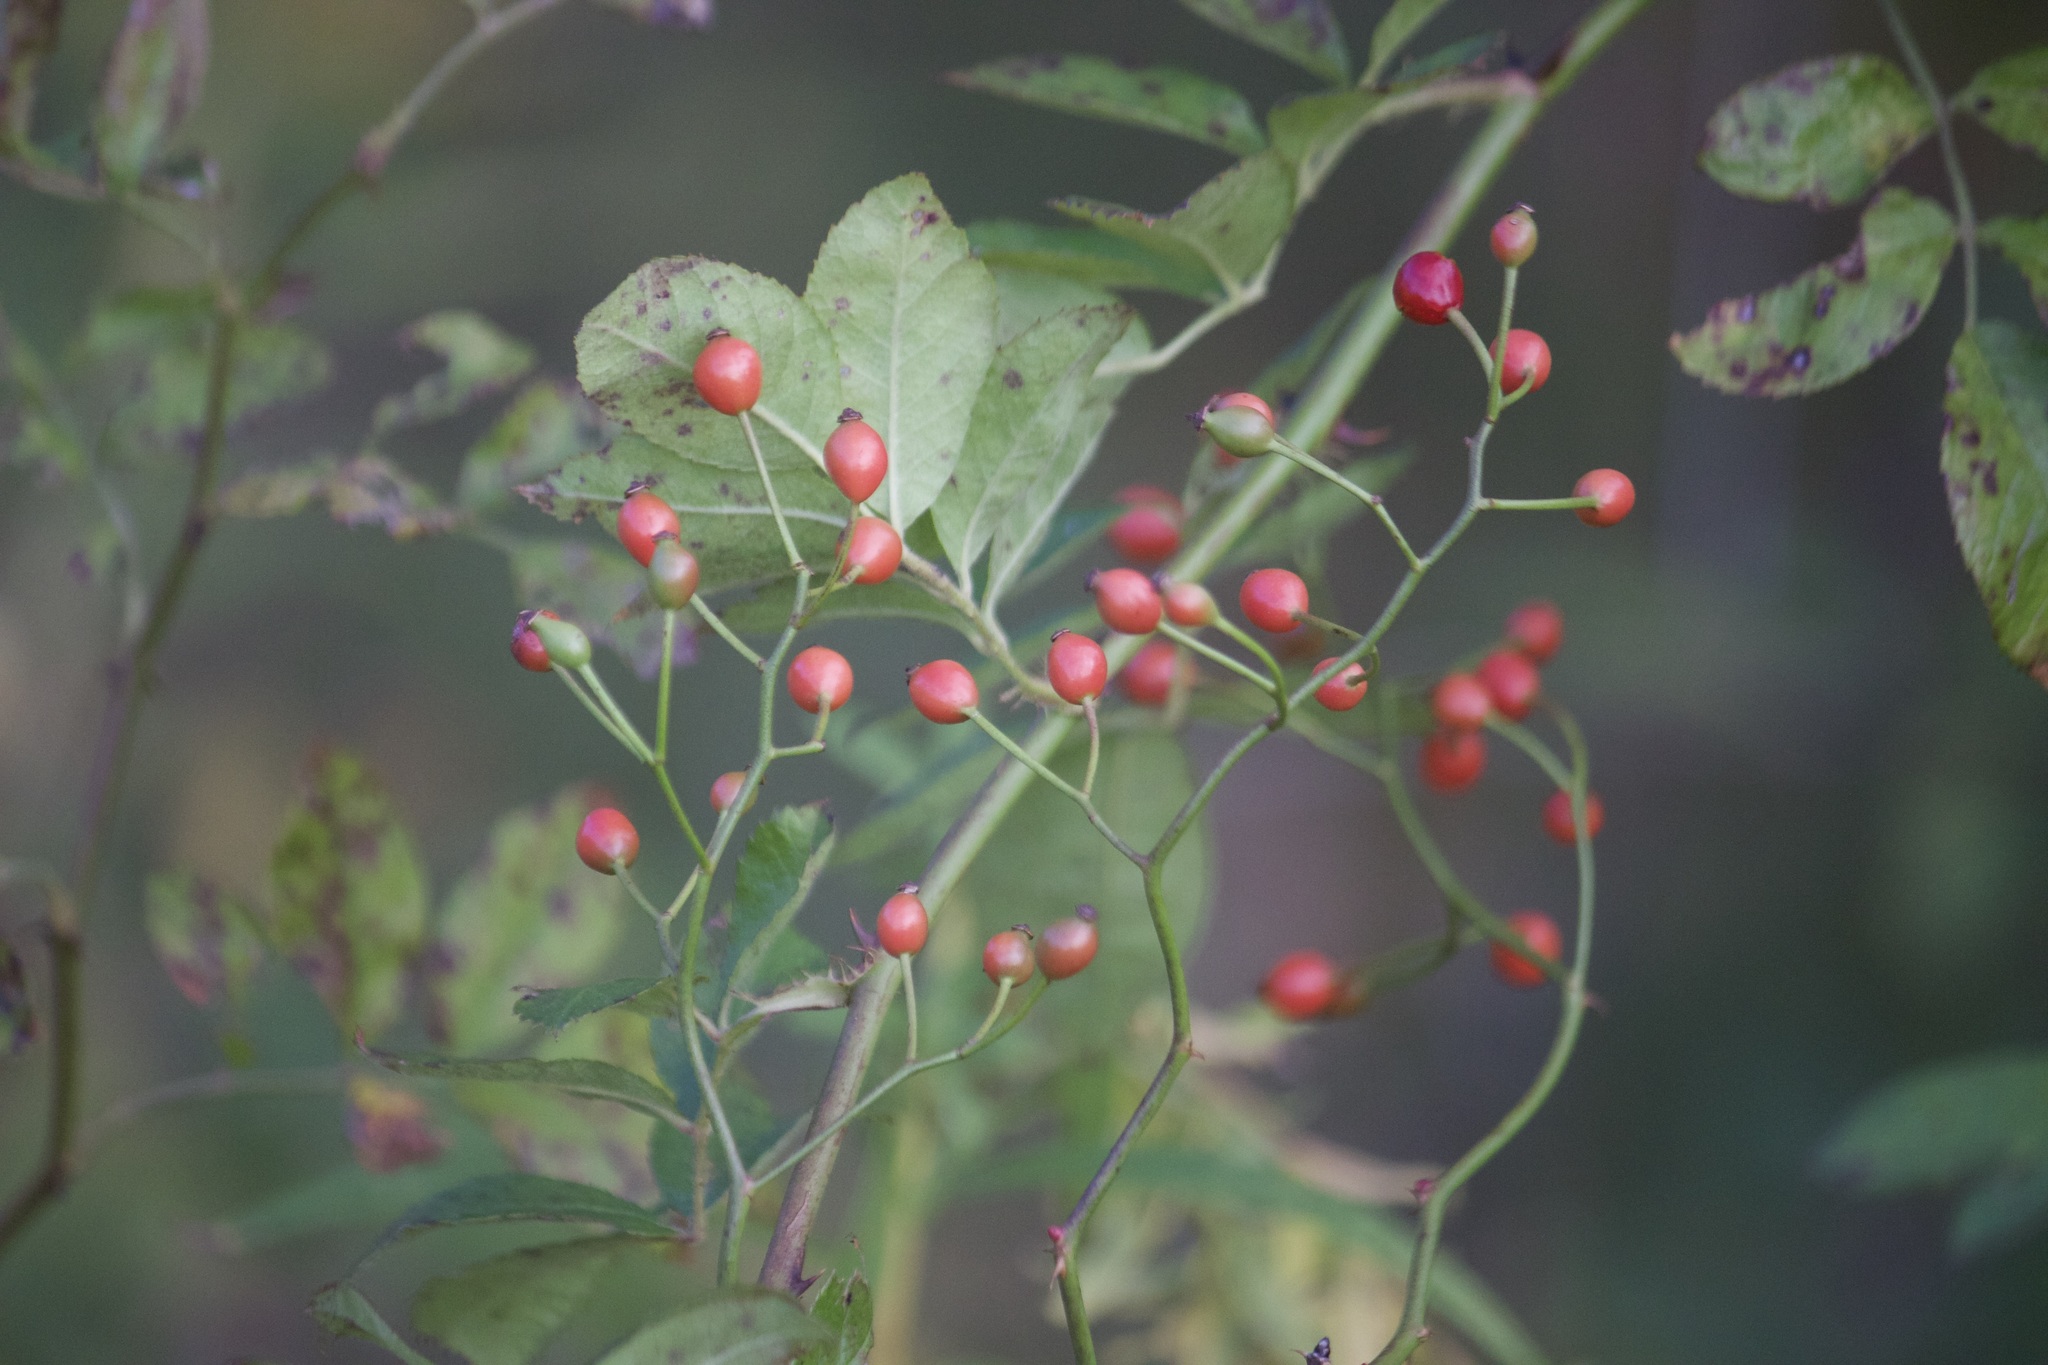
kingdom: Plantae
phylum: Tracheophyta
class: Magnoliopsida
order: Rosales
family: Rosaceae
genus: Rosa
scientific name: Rosa multiflora
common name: Multiflora rose
